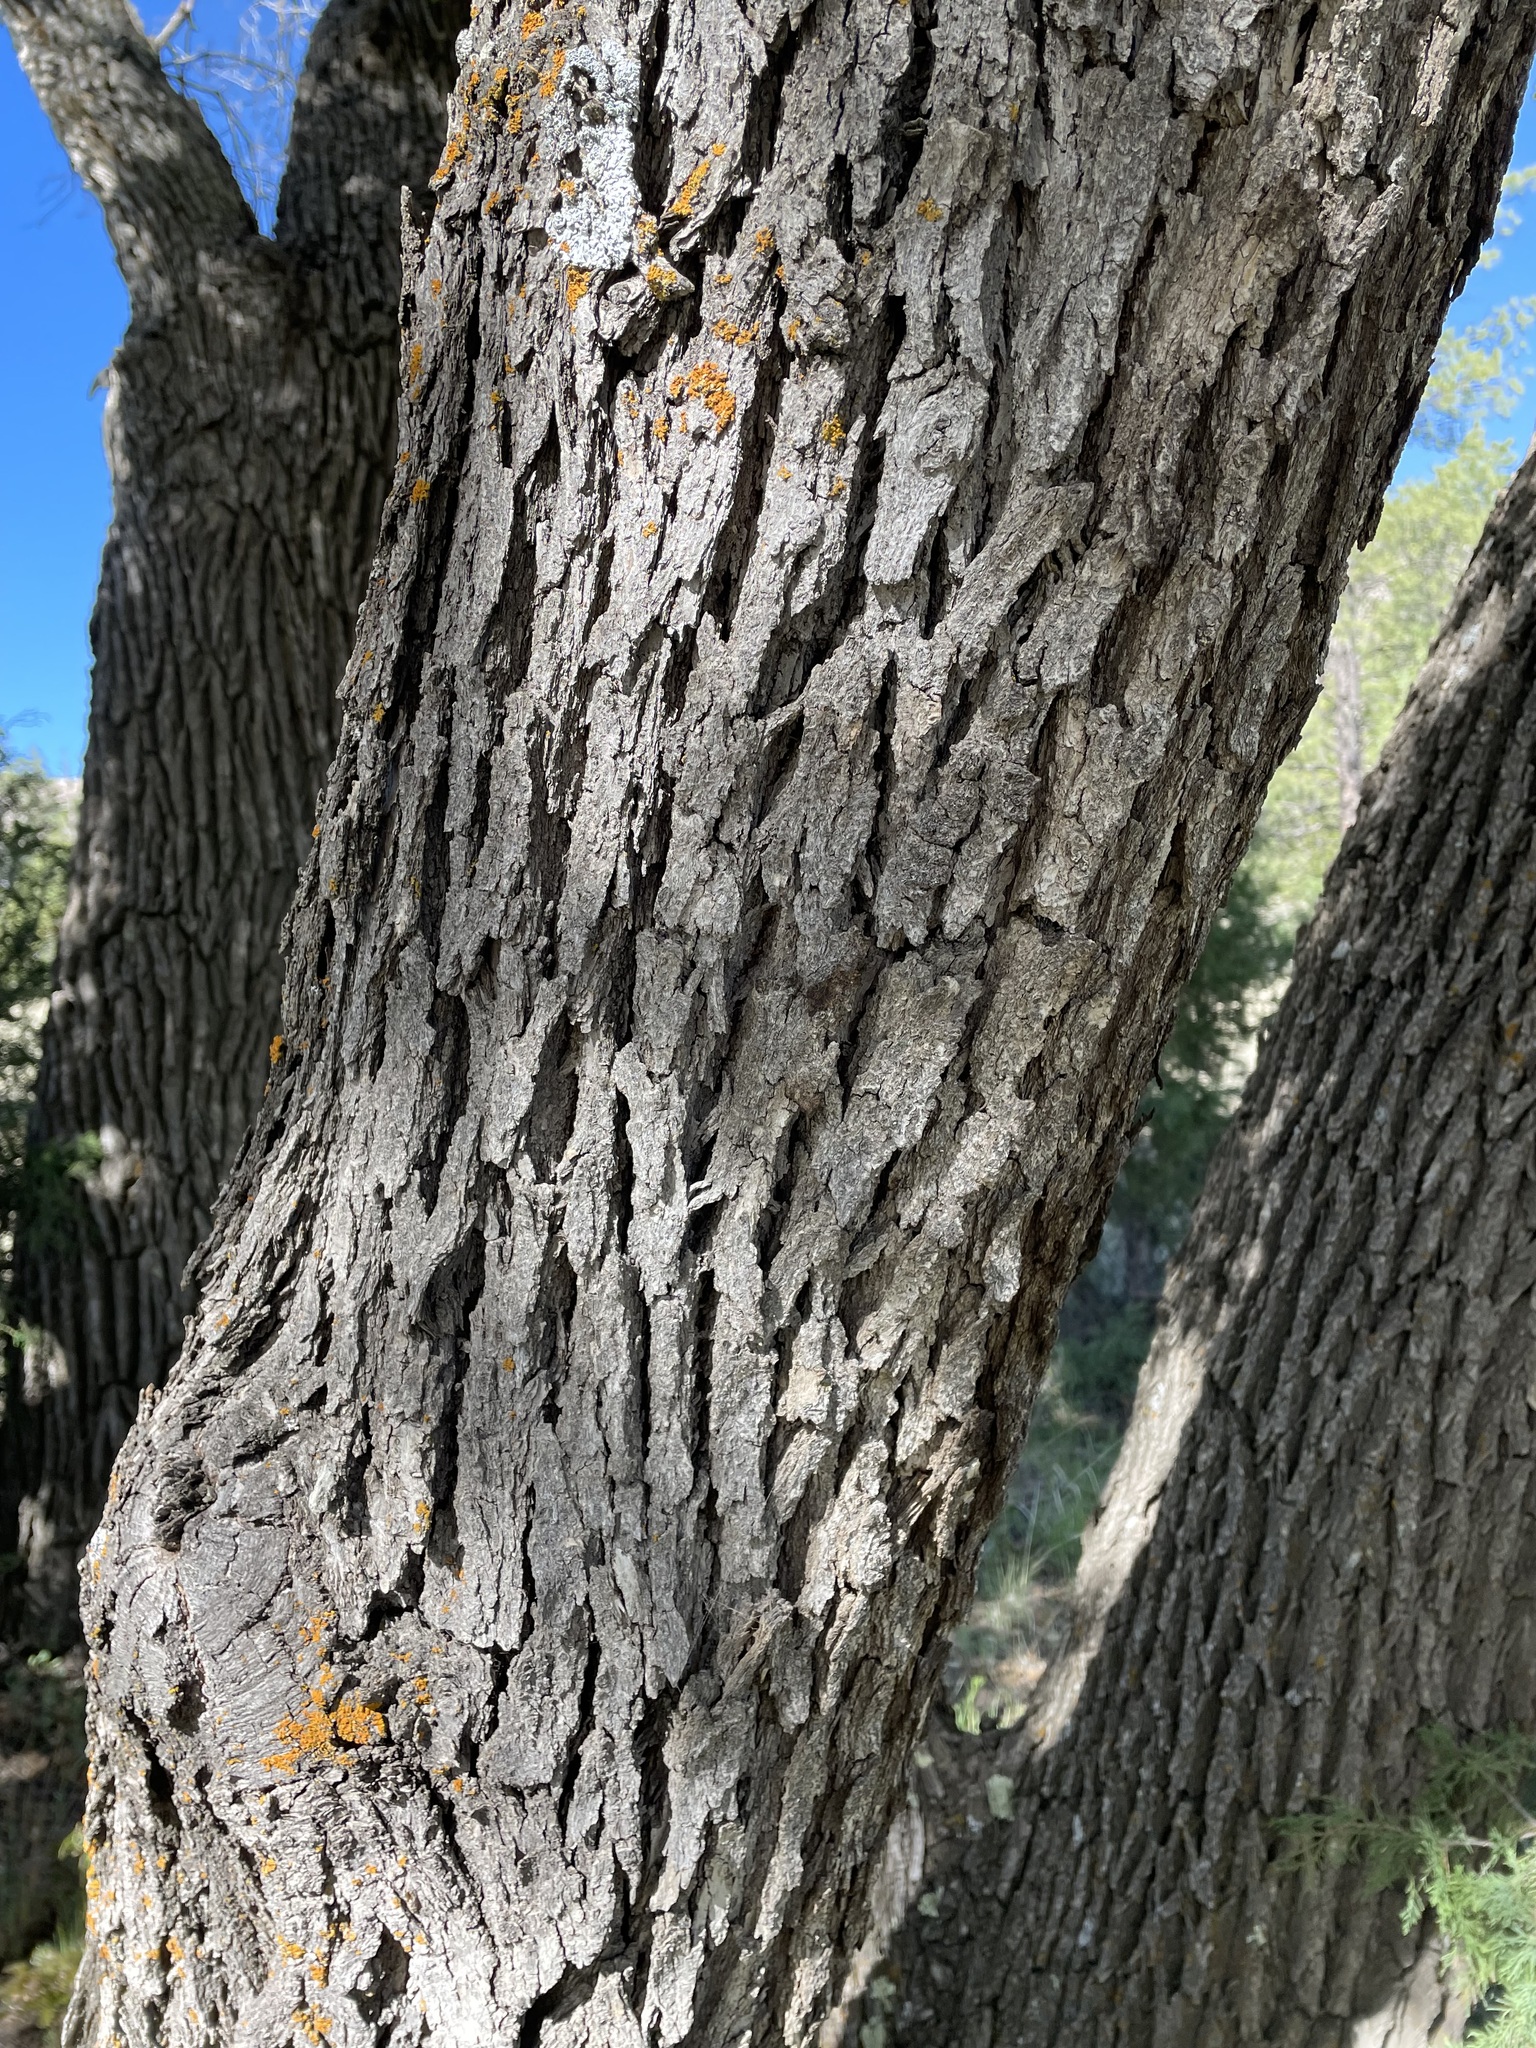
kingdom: Plantae
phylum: Tracheophyta
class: Magnoliopsida
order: Fagales
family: Fagaceae
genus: Quercus
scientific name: Quercus gambelii
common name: Gambel oak
